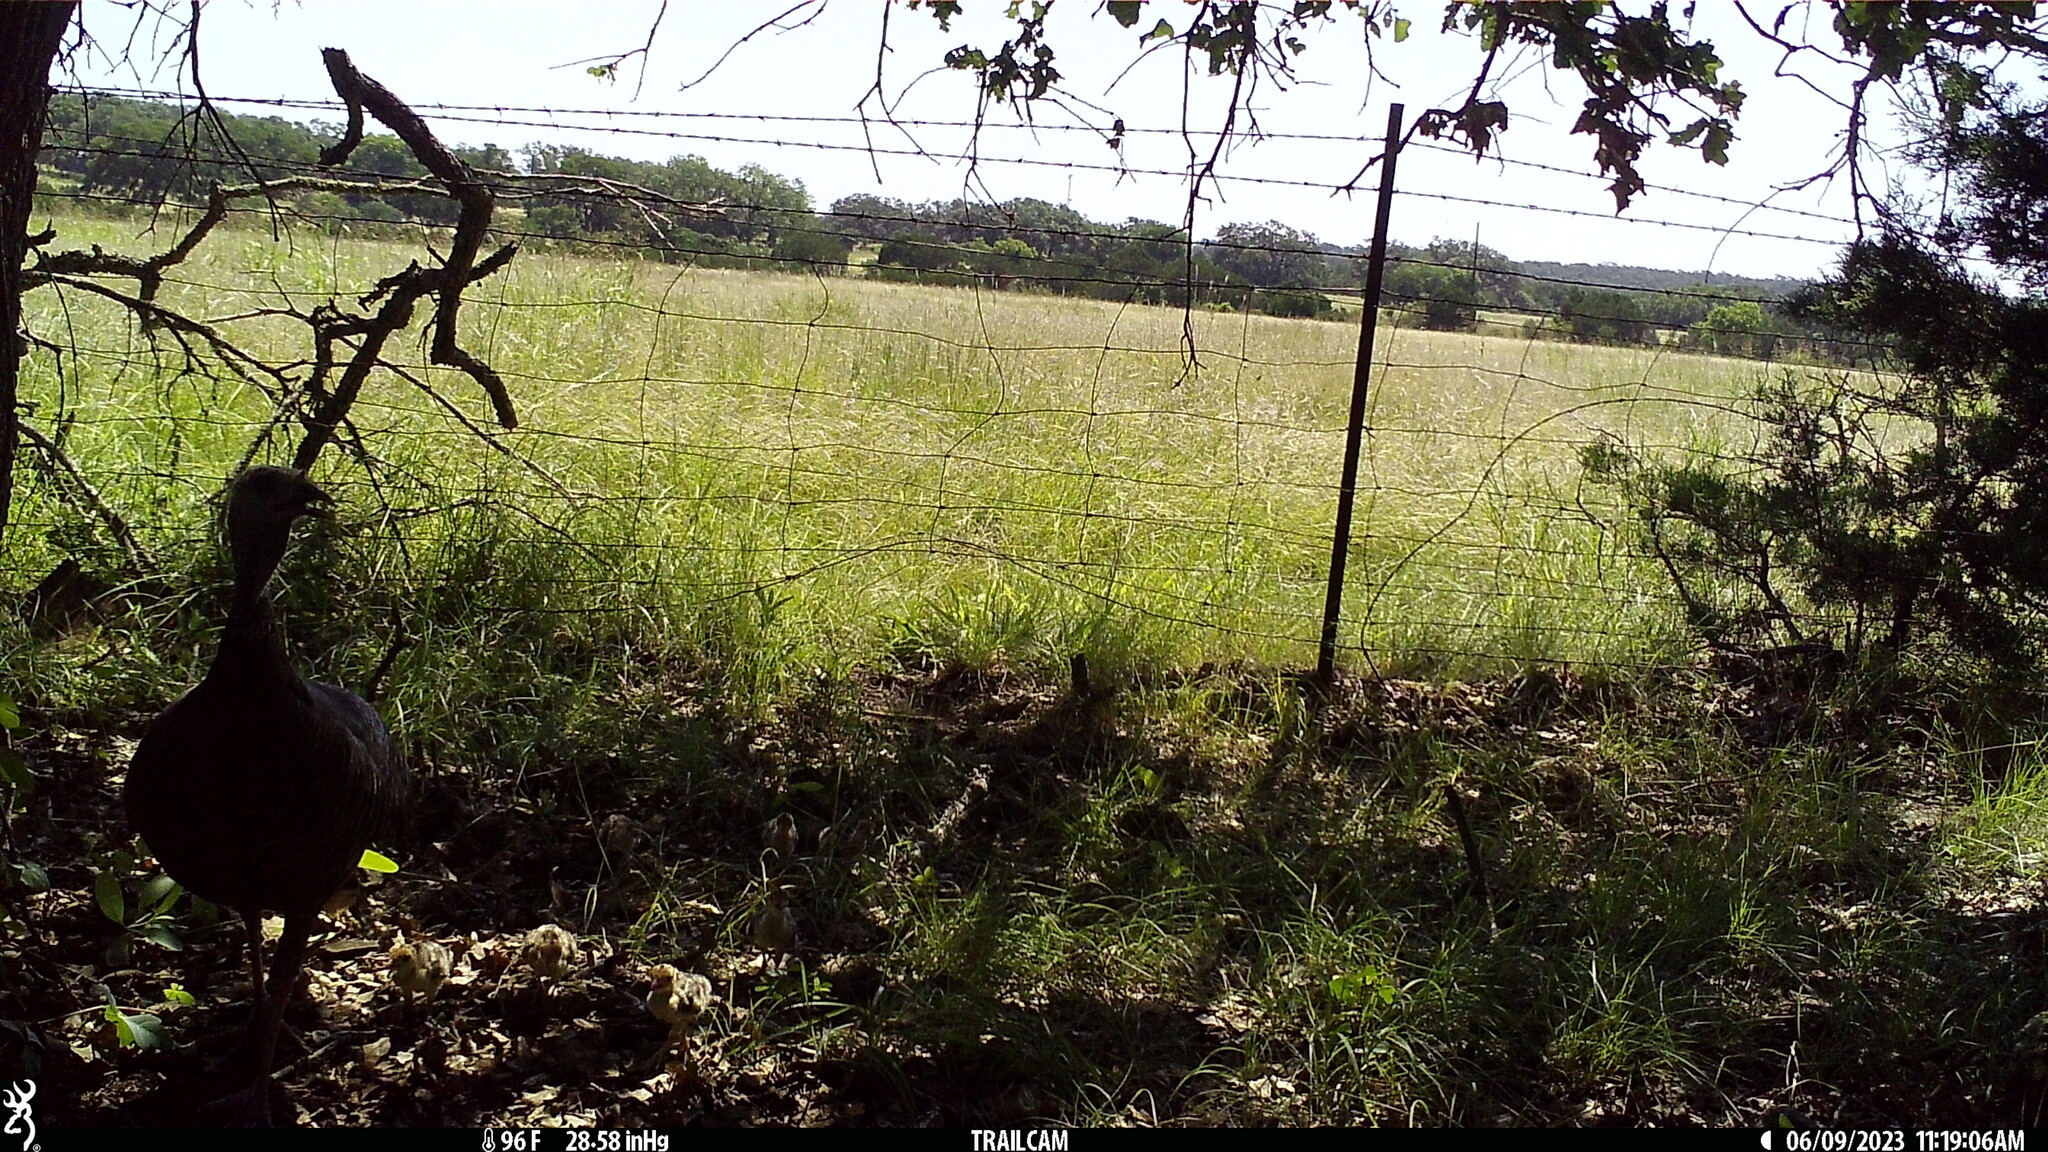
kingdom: Animalia
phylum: Chordata
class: Aves
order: Galliformes
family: Phasianidae
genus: Meleagris
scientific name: Meleagris gallopavo
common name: Wild turkey
